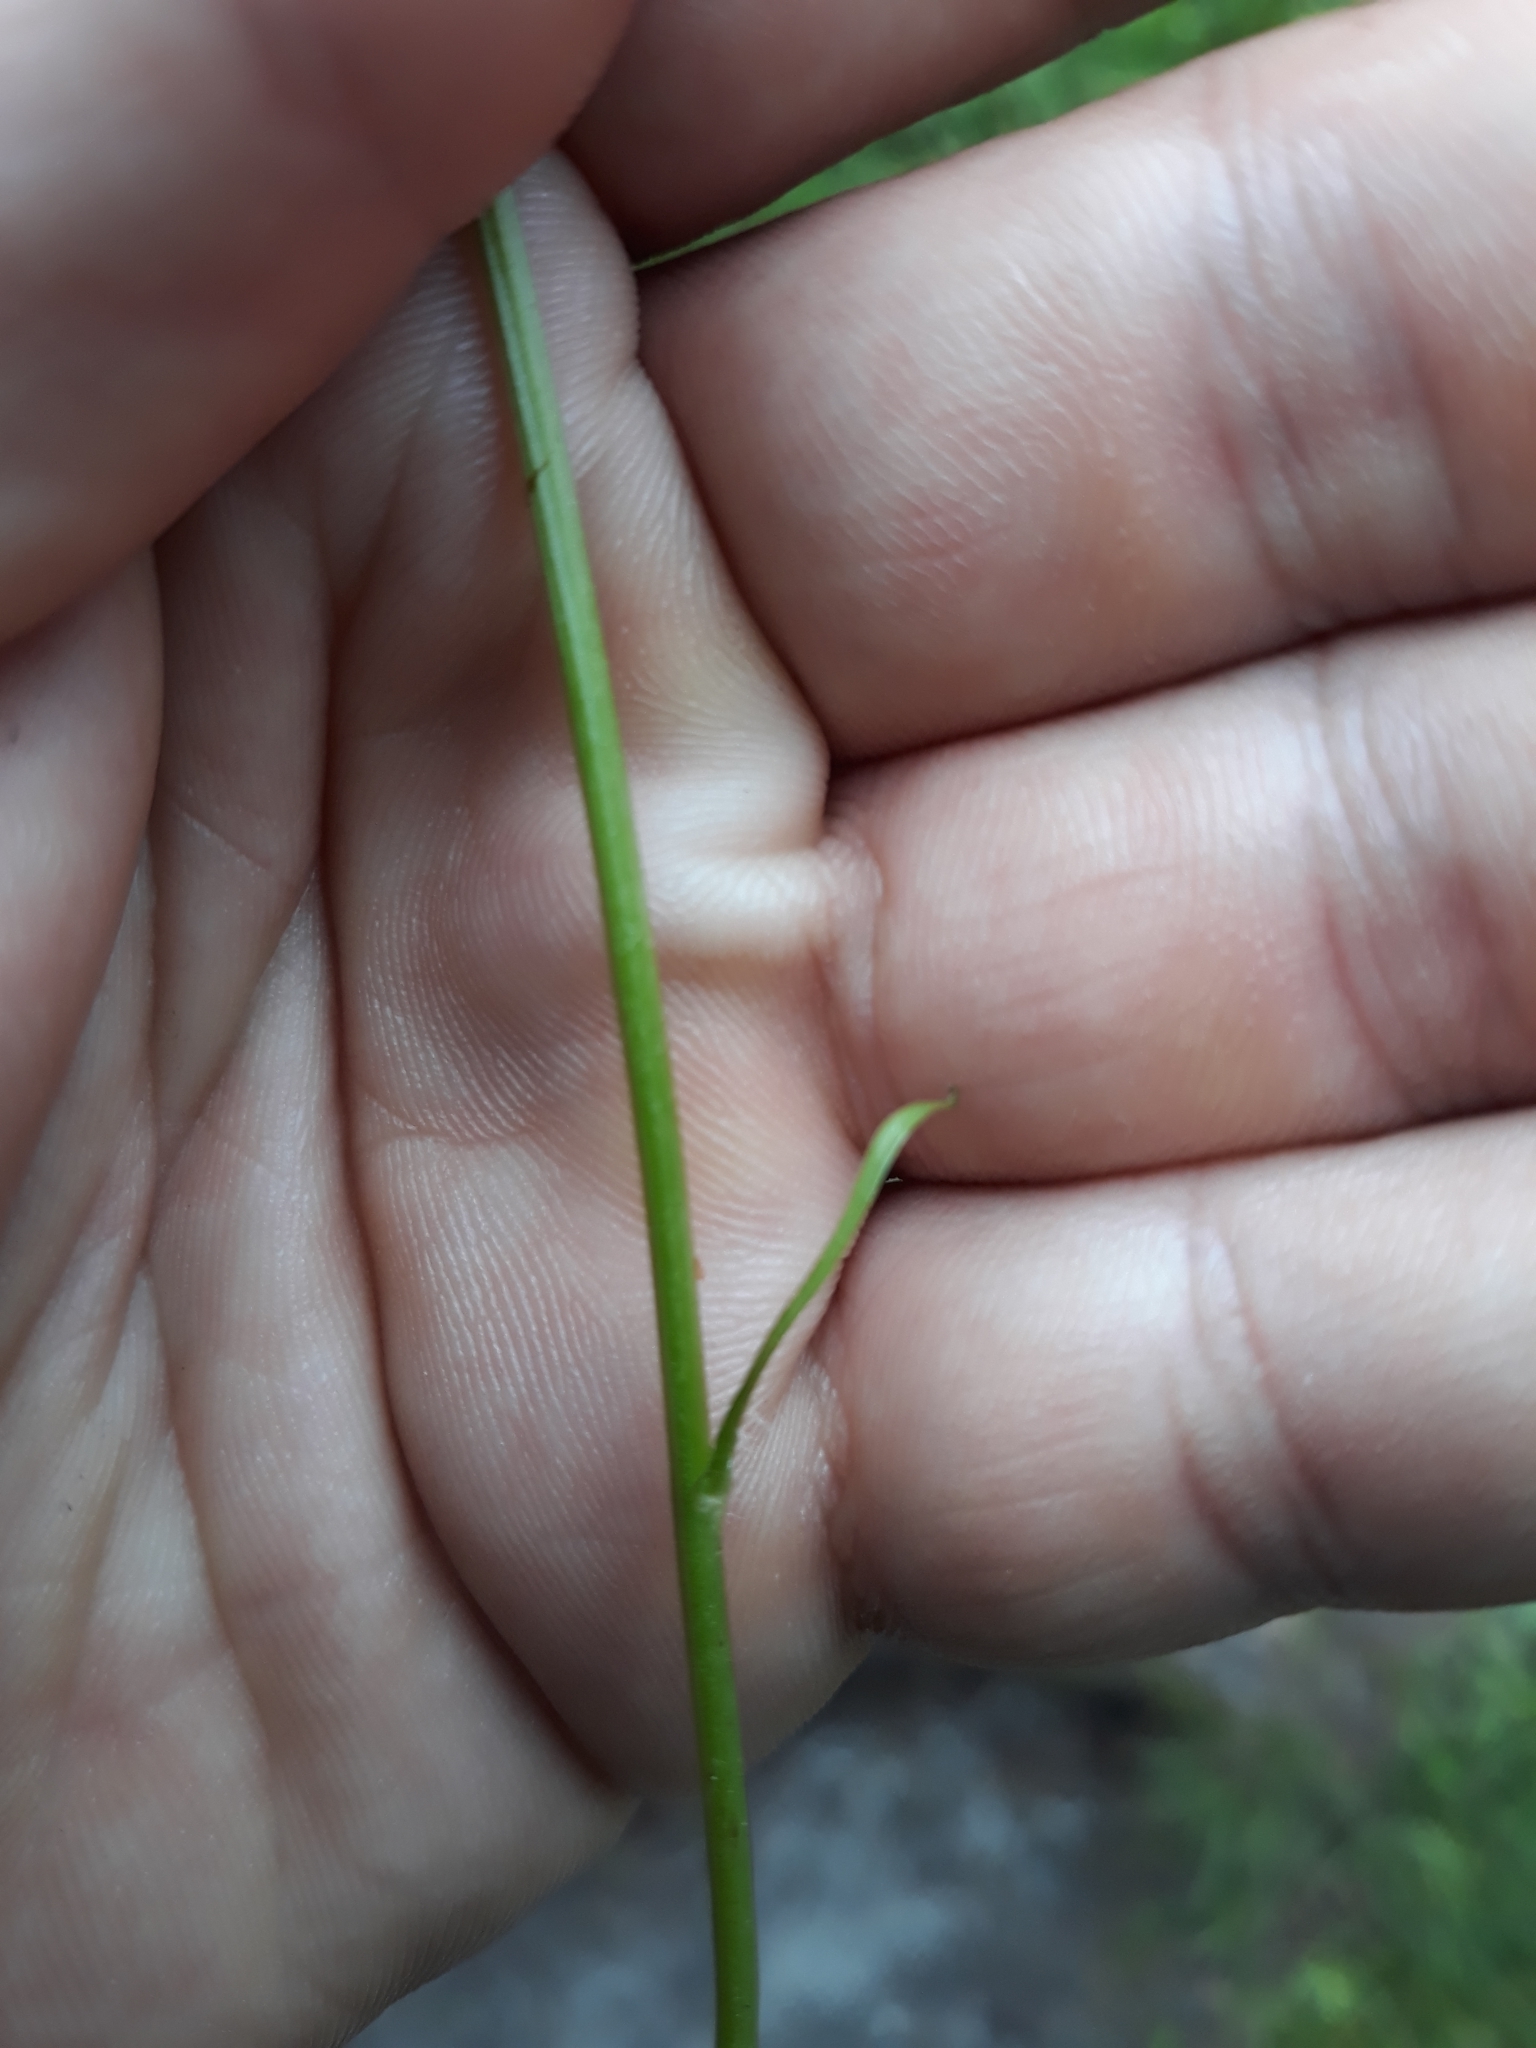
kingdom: Plantae
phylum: Tracheophyta
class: Magnoliopsida
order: Asterales
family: Asteraceae
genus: Crepis
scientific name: Crepis aurea
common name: Golden hawk's-beard
